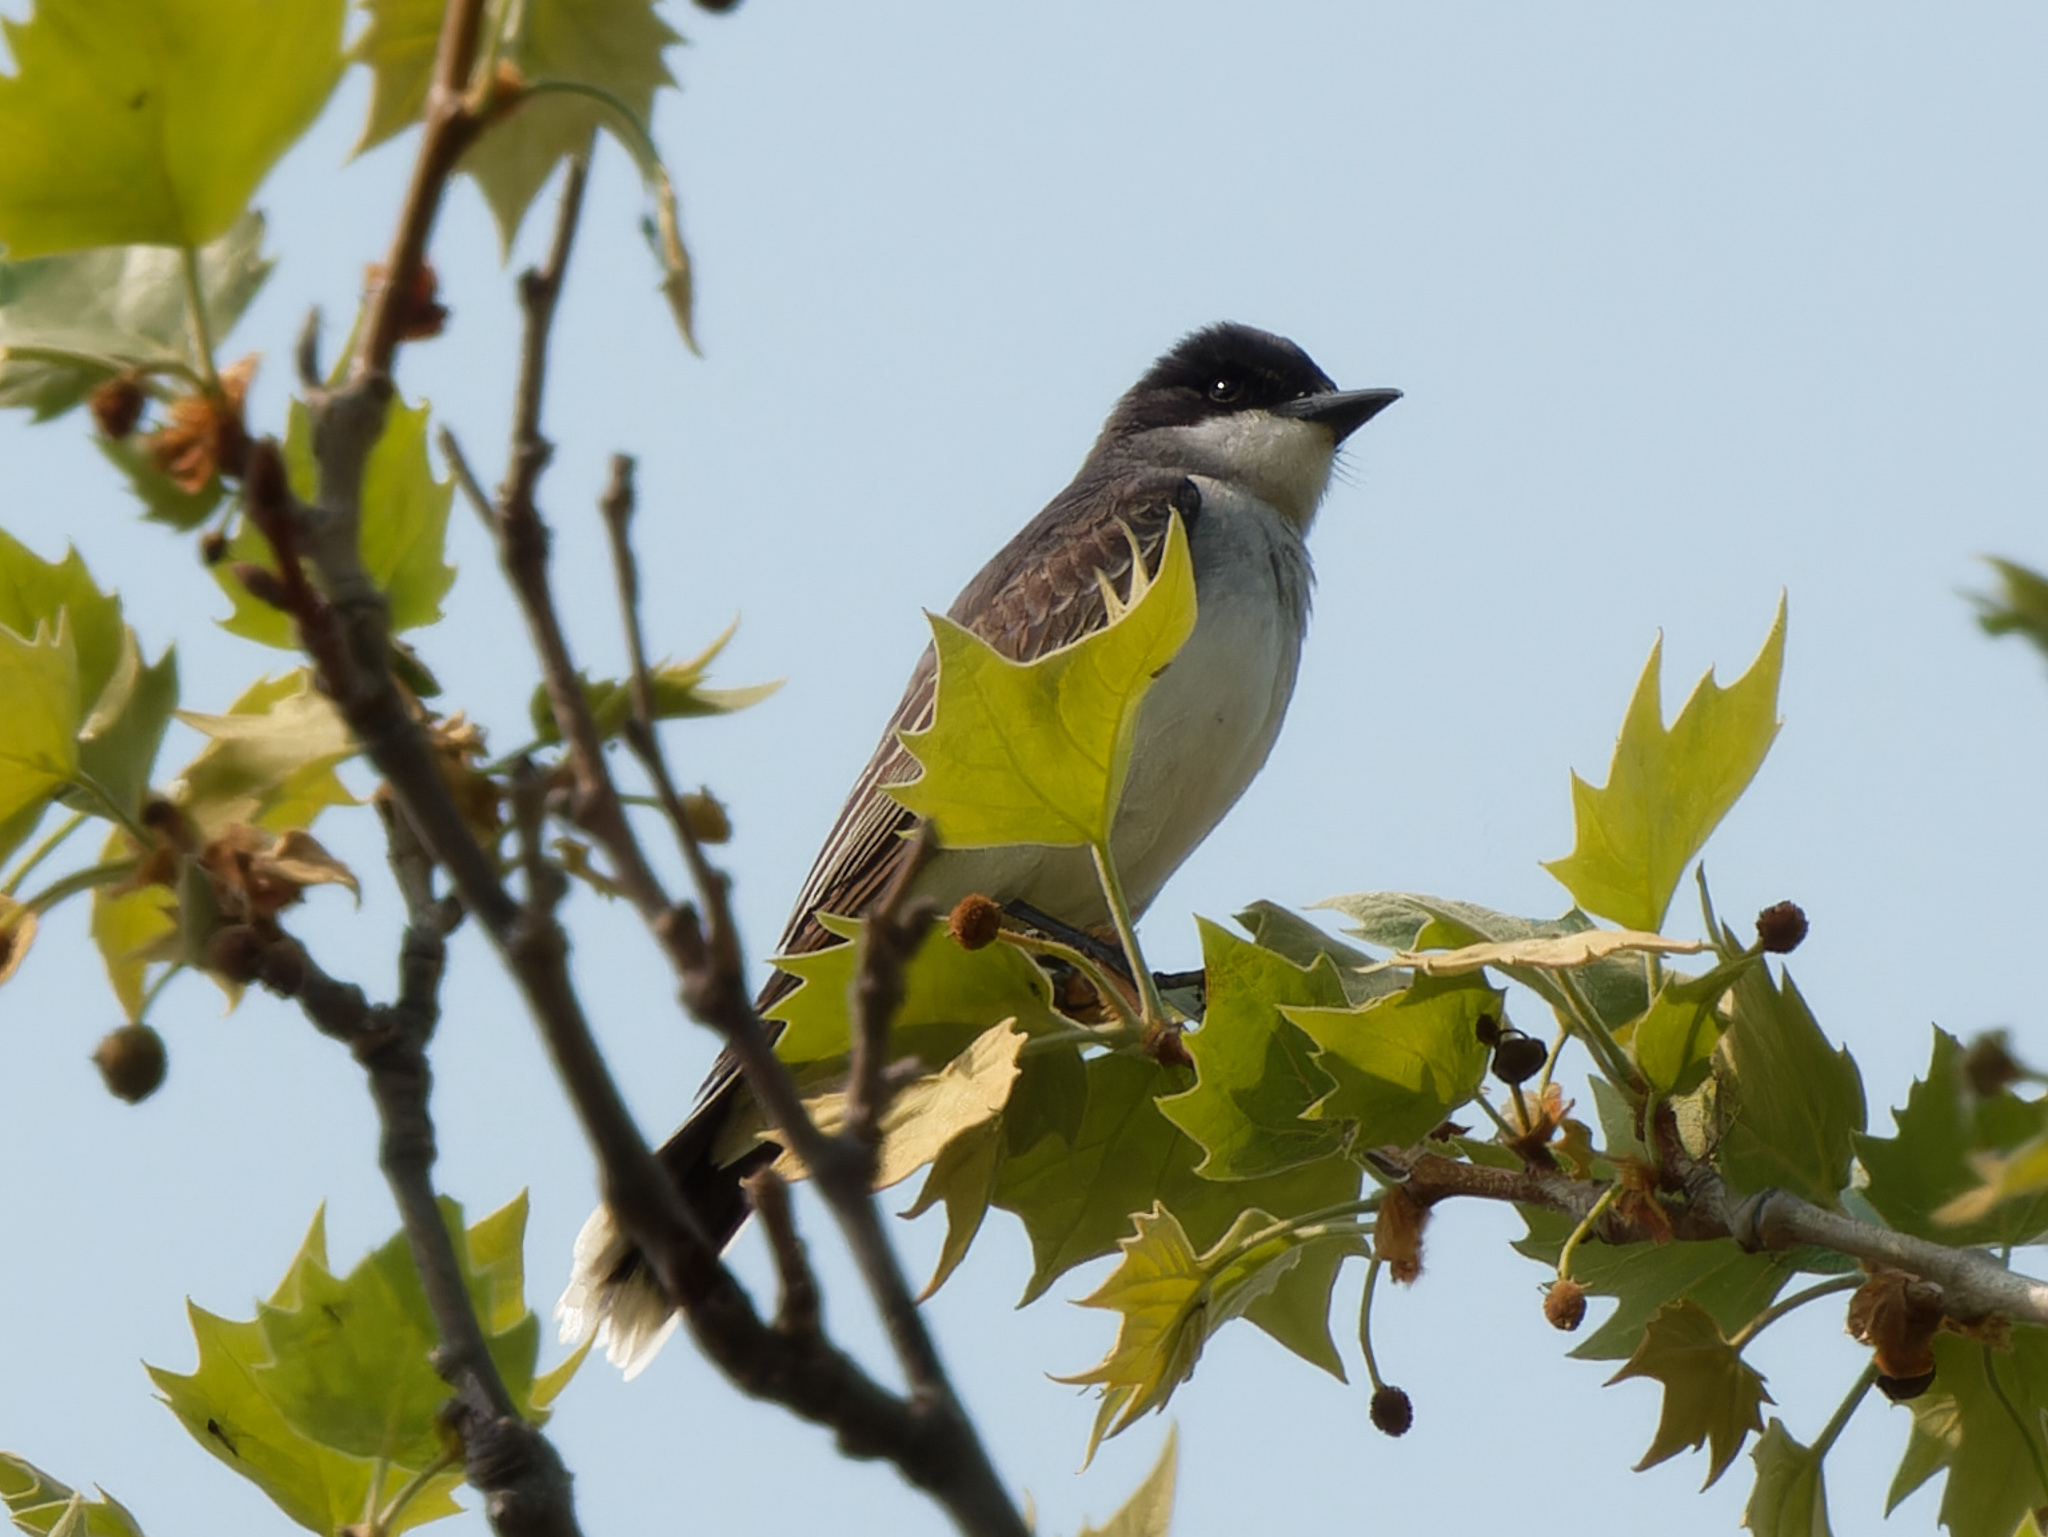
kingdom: Animalia
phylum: Chordata
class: Aves
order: Passeriformes
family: Tyrannidae
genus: Tyrannus
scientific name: Tyrannus tyrannus
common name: Eastern kingbird
